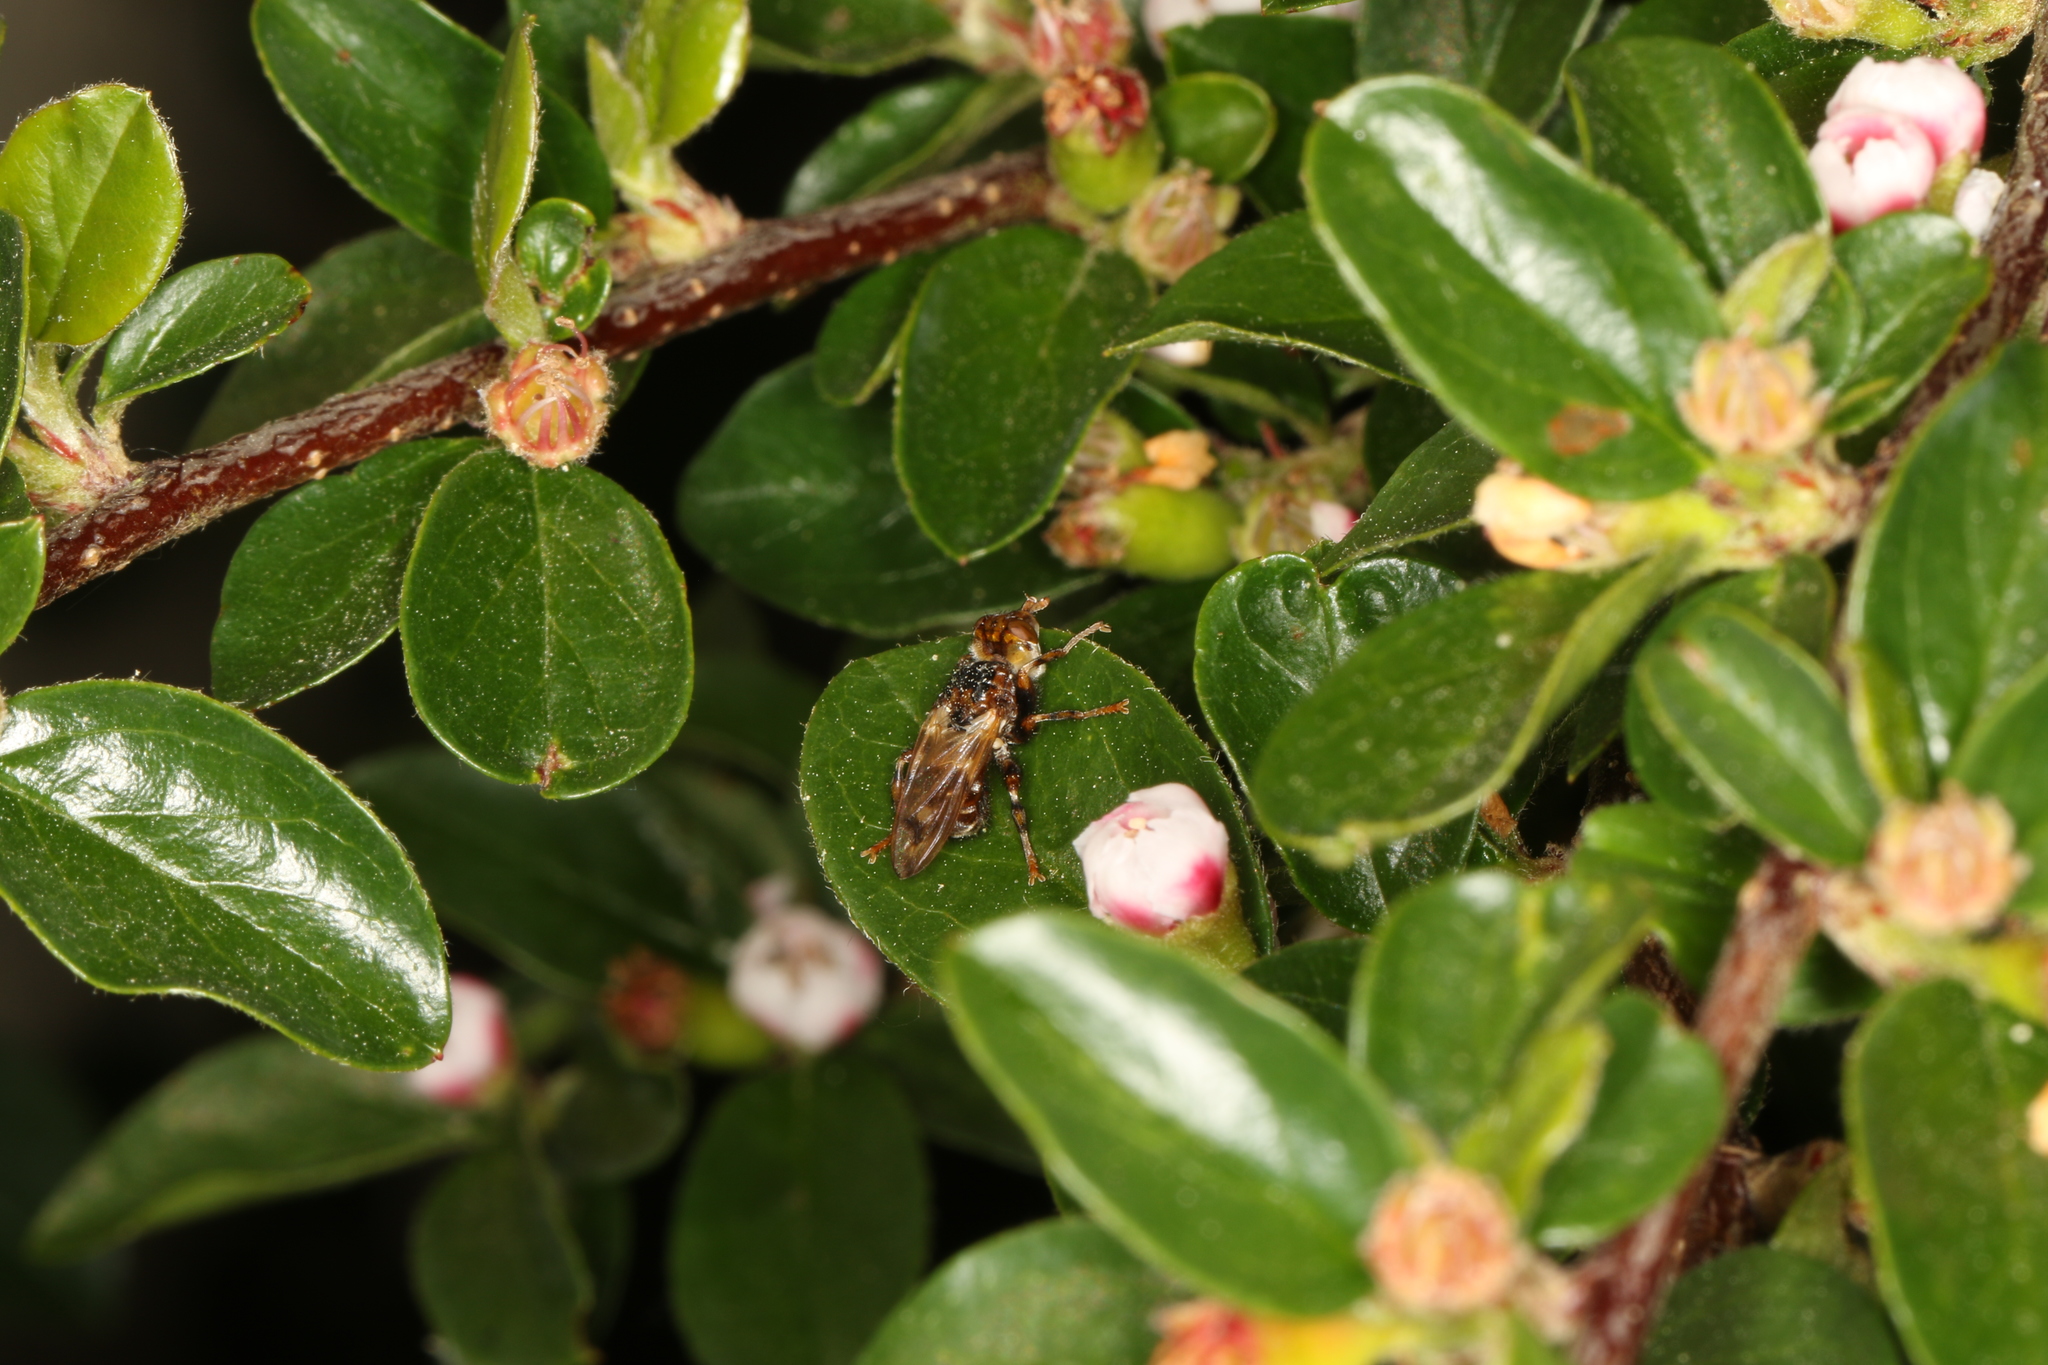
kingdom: Animalia
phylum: Arthropoda
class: Insecta
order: Diptera
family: Conopidae
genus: Myopa
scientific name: Myopa buccata
